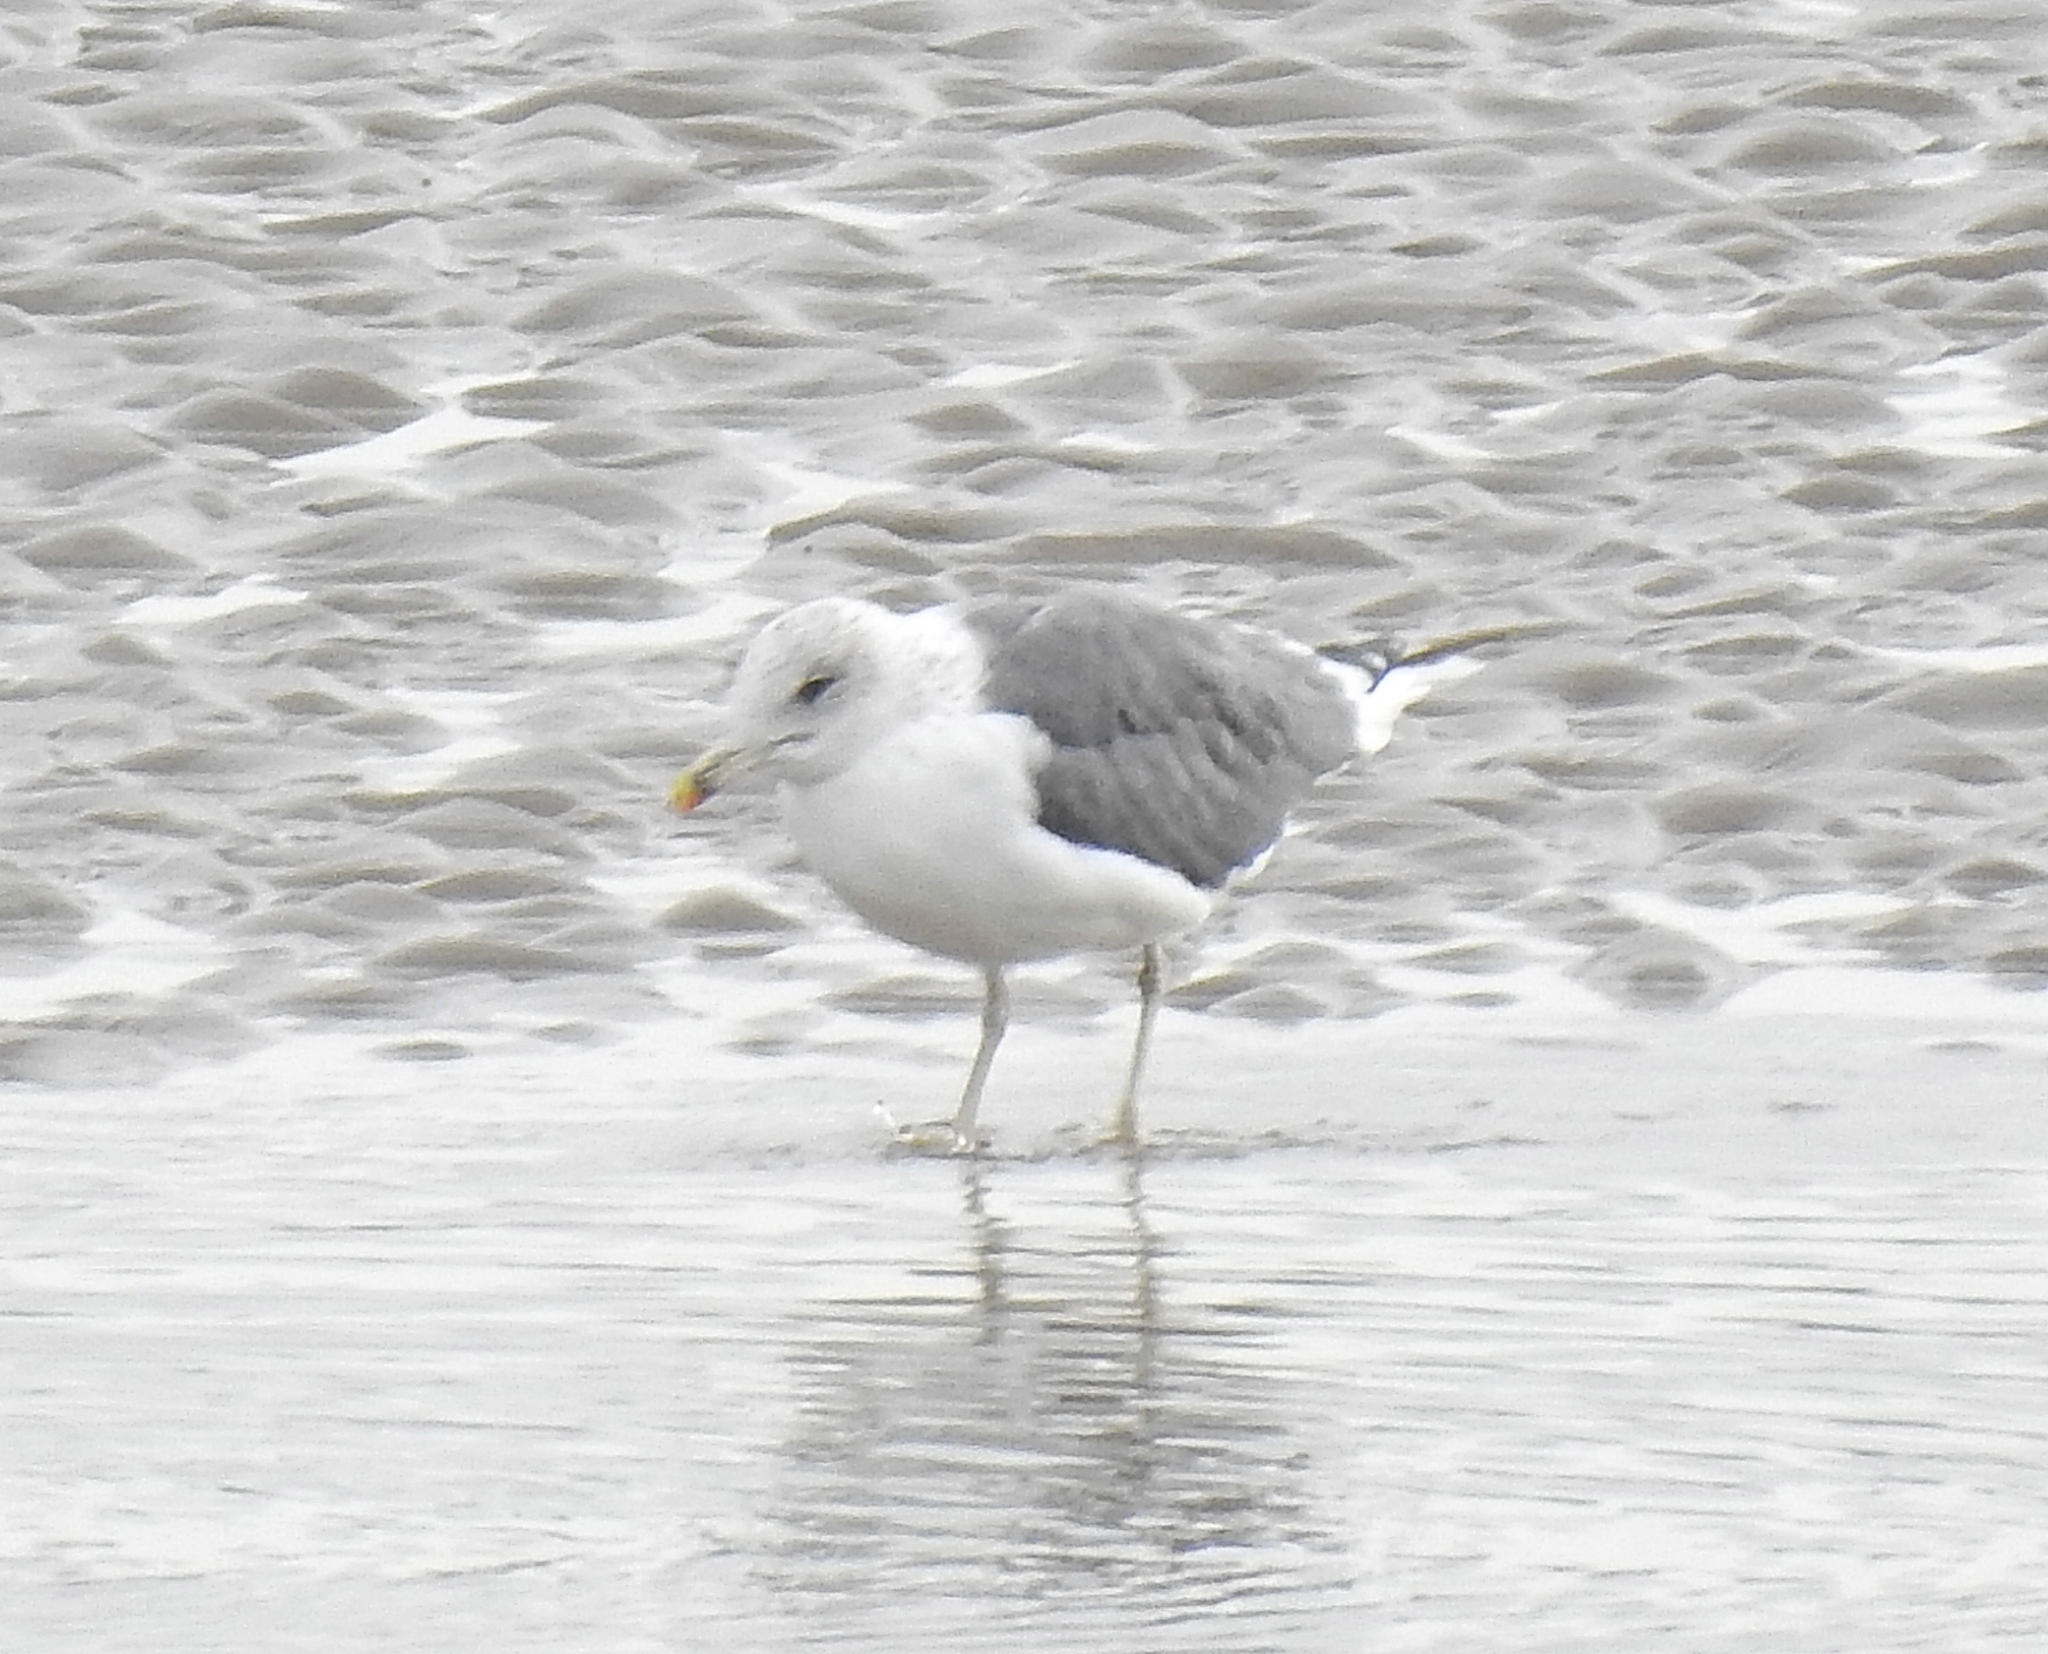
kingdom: Animalia
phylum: Chordata
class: Aves
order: Charadriiformes
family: Laridae
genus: Larus
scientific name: Larus fuscus
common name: Lesser black-backed gull
